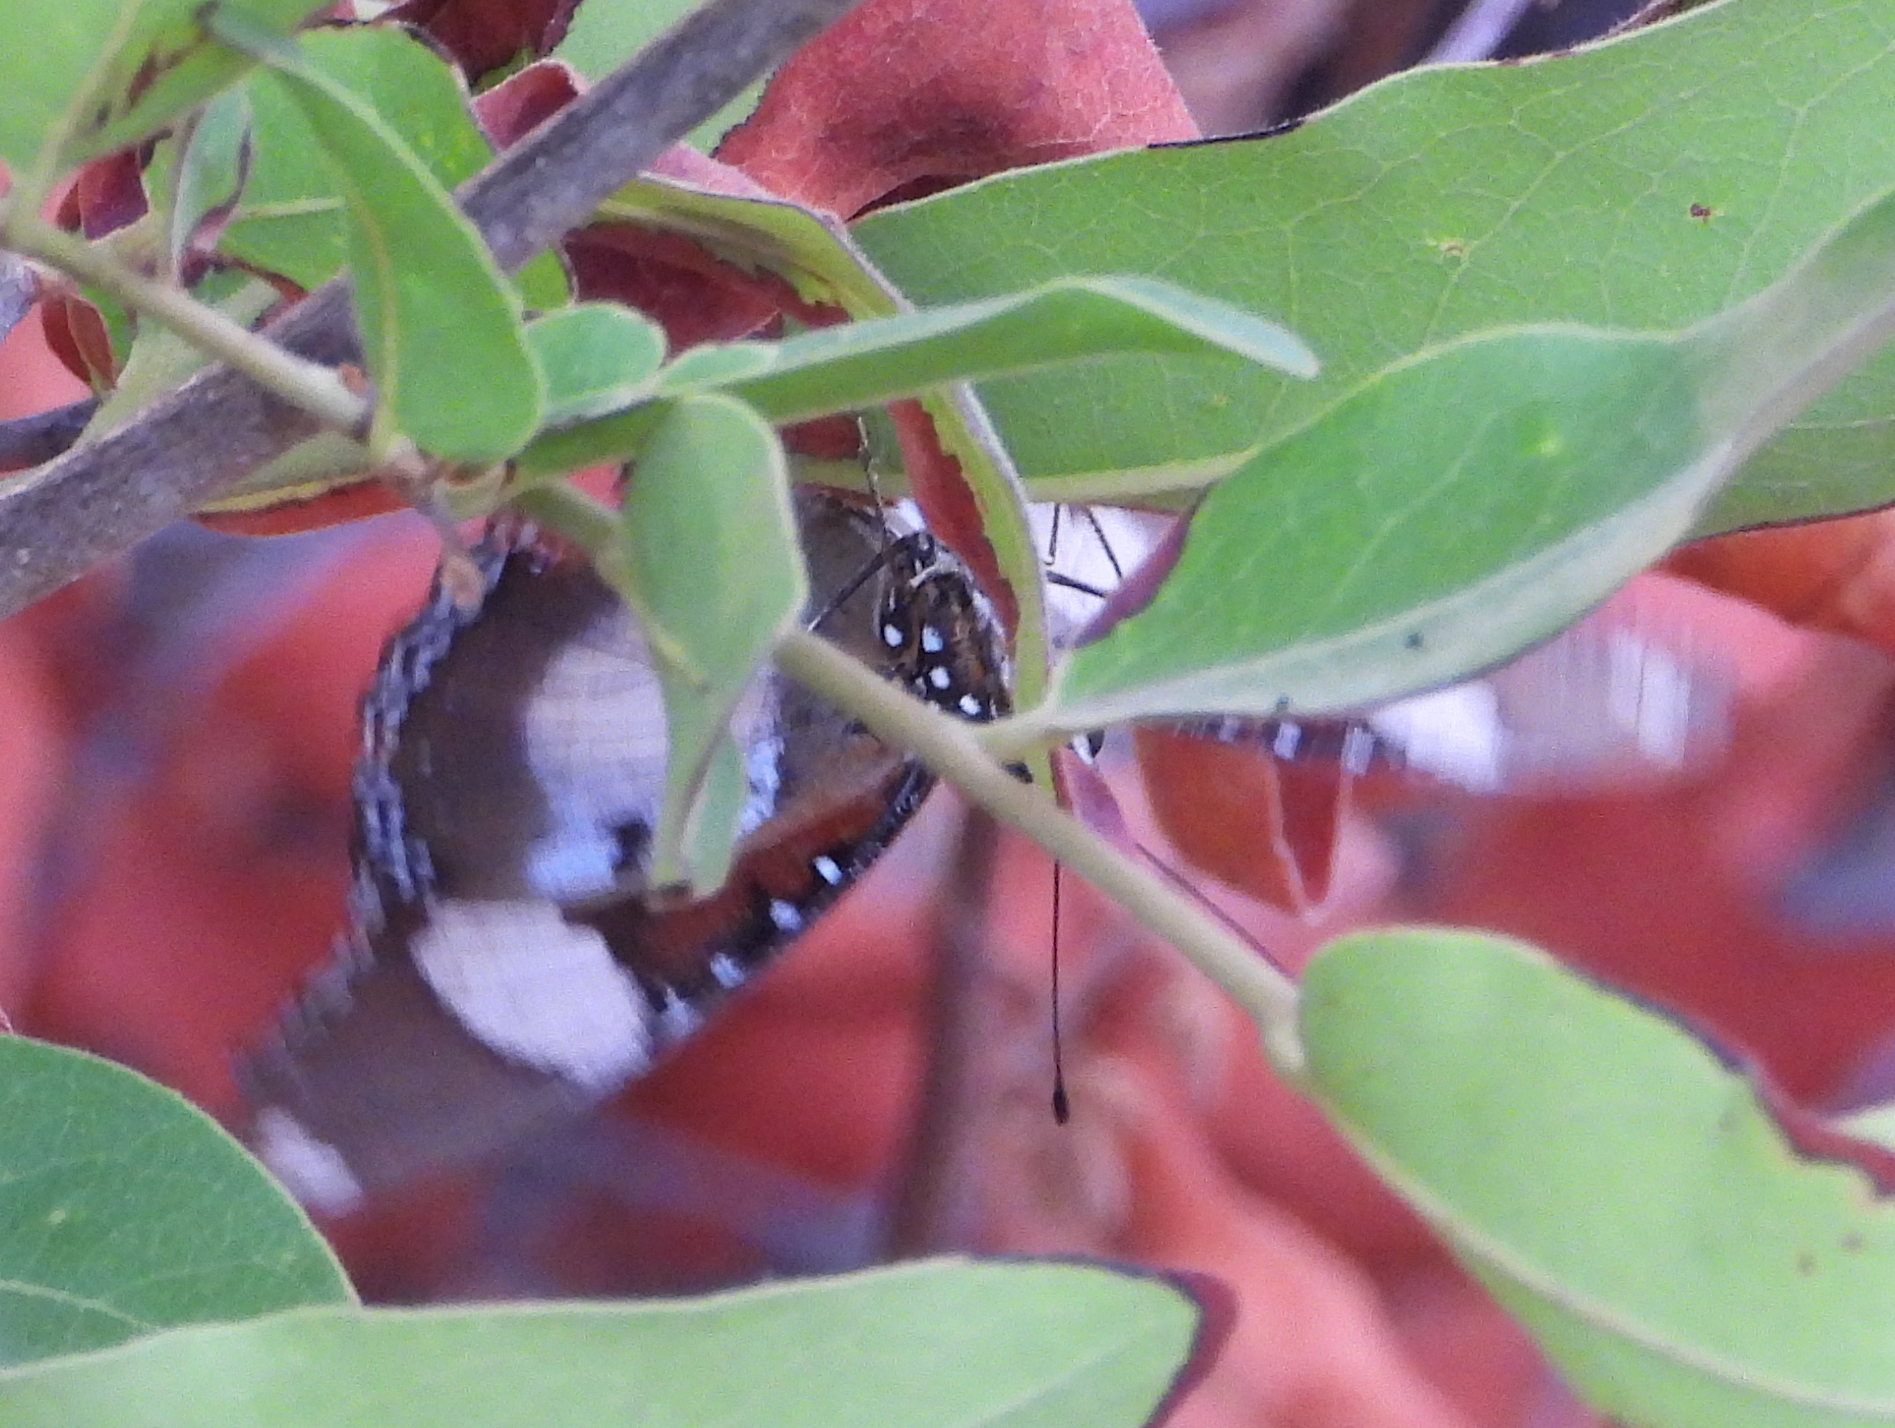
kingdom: Animalia
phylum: Arthropoda
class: Insecta
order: Lepidoptera
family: Nymphalidae
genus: Hypolimnas
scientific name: Hypolimnas misippus
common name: False plain tiger
